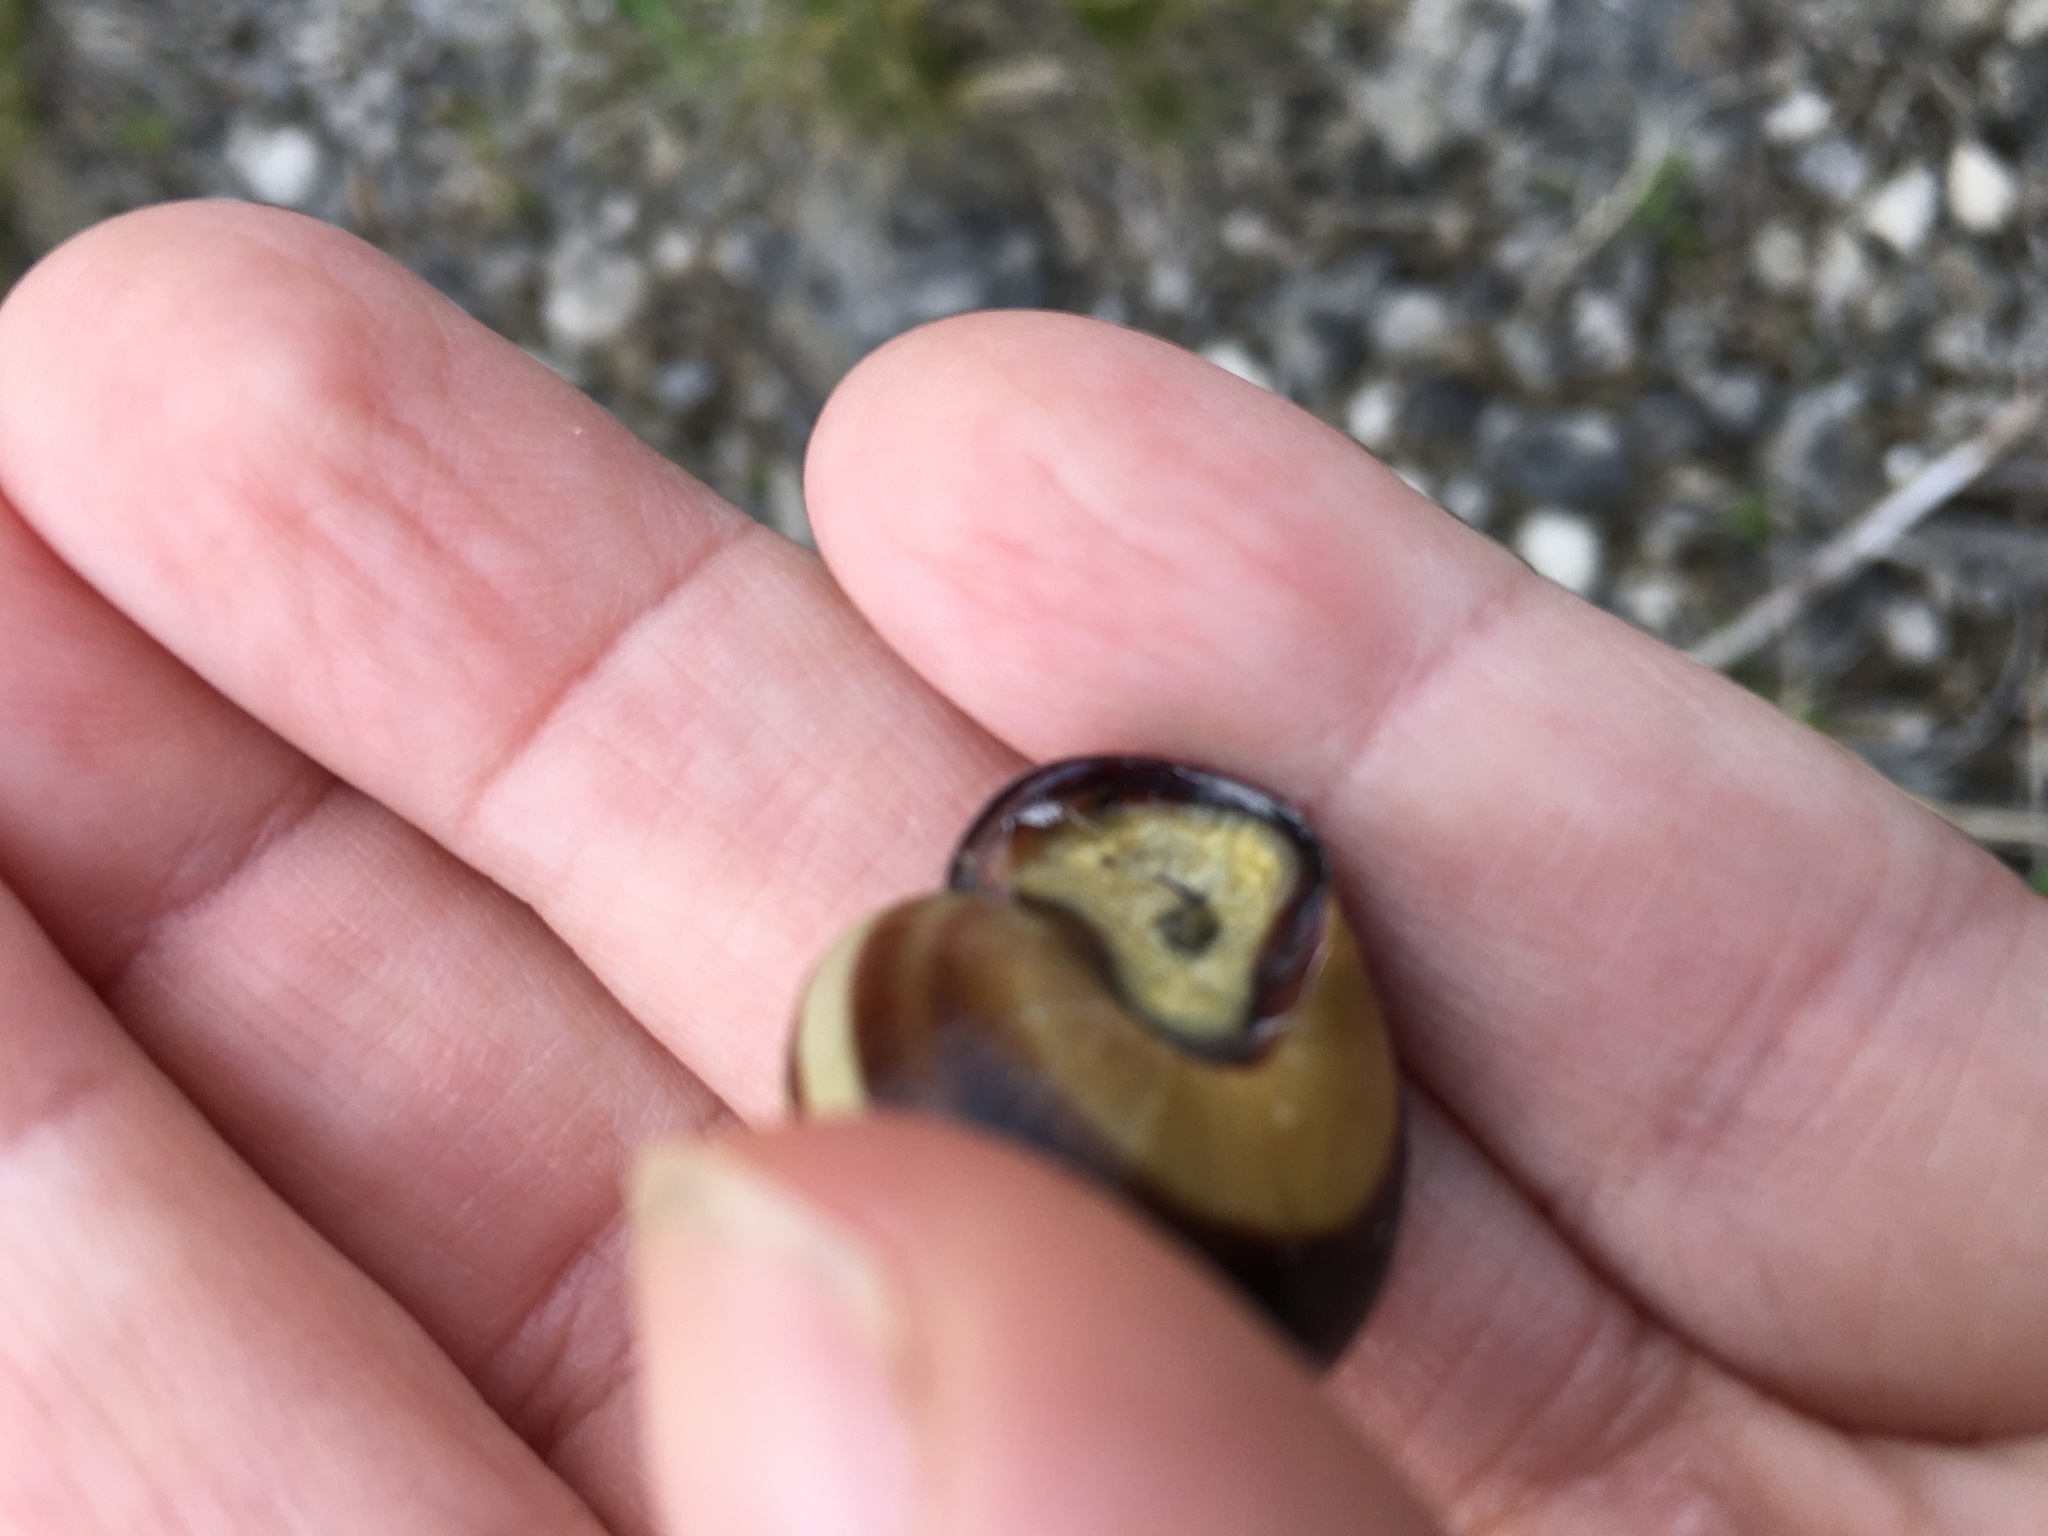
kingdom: Animalia
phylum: Mollusca
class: Gastropoda
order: Stylommatophora
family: Helicidae
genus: Cepaea
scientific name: Cepaea nemoralis
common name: Grovesnail
